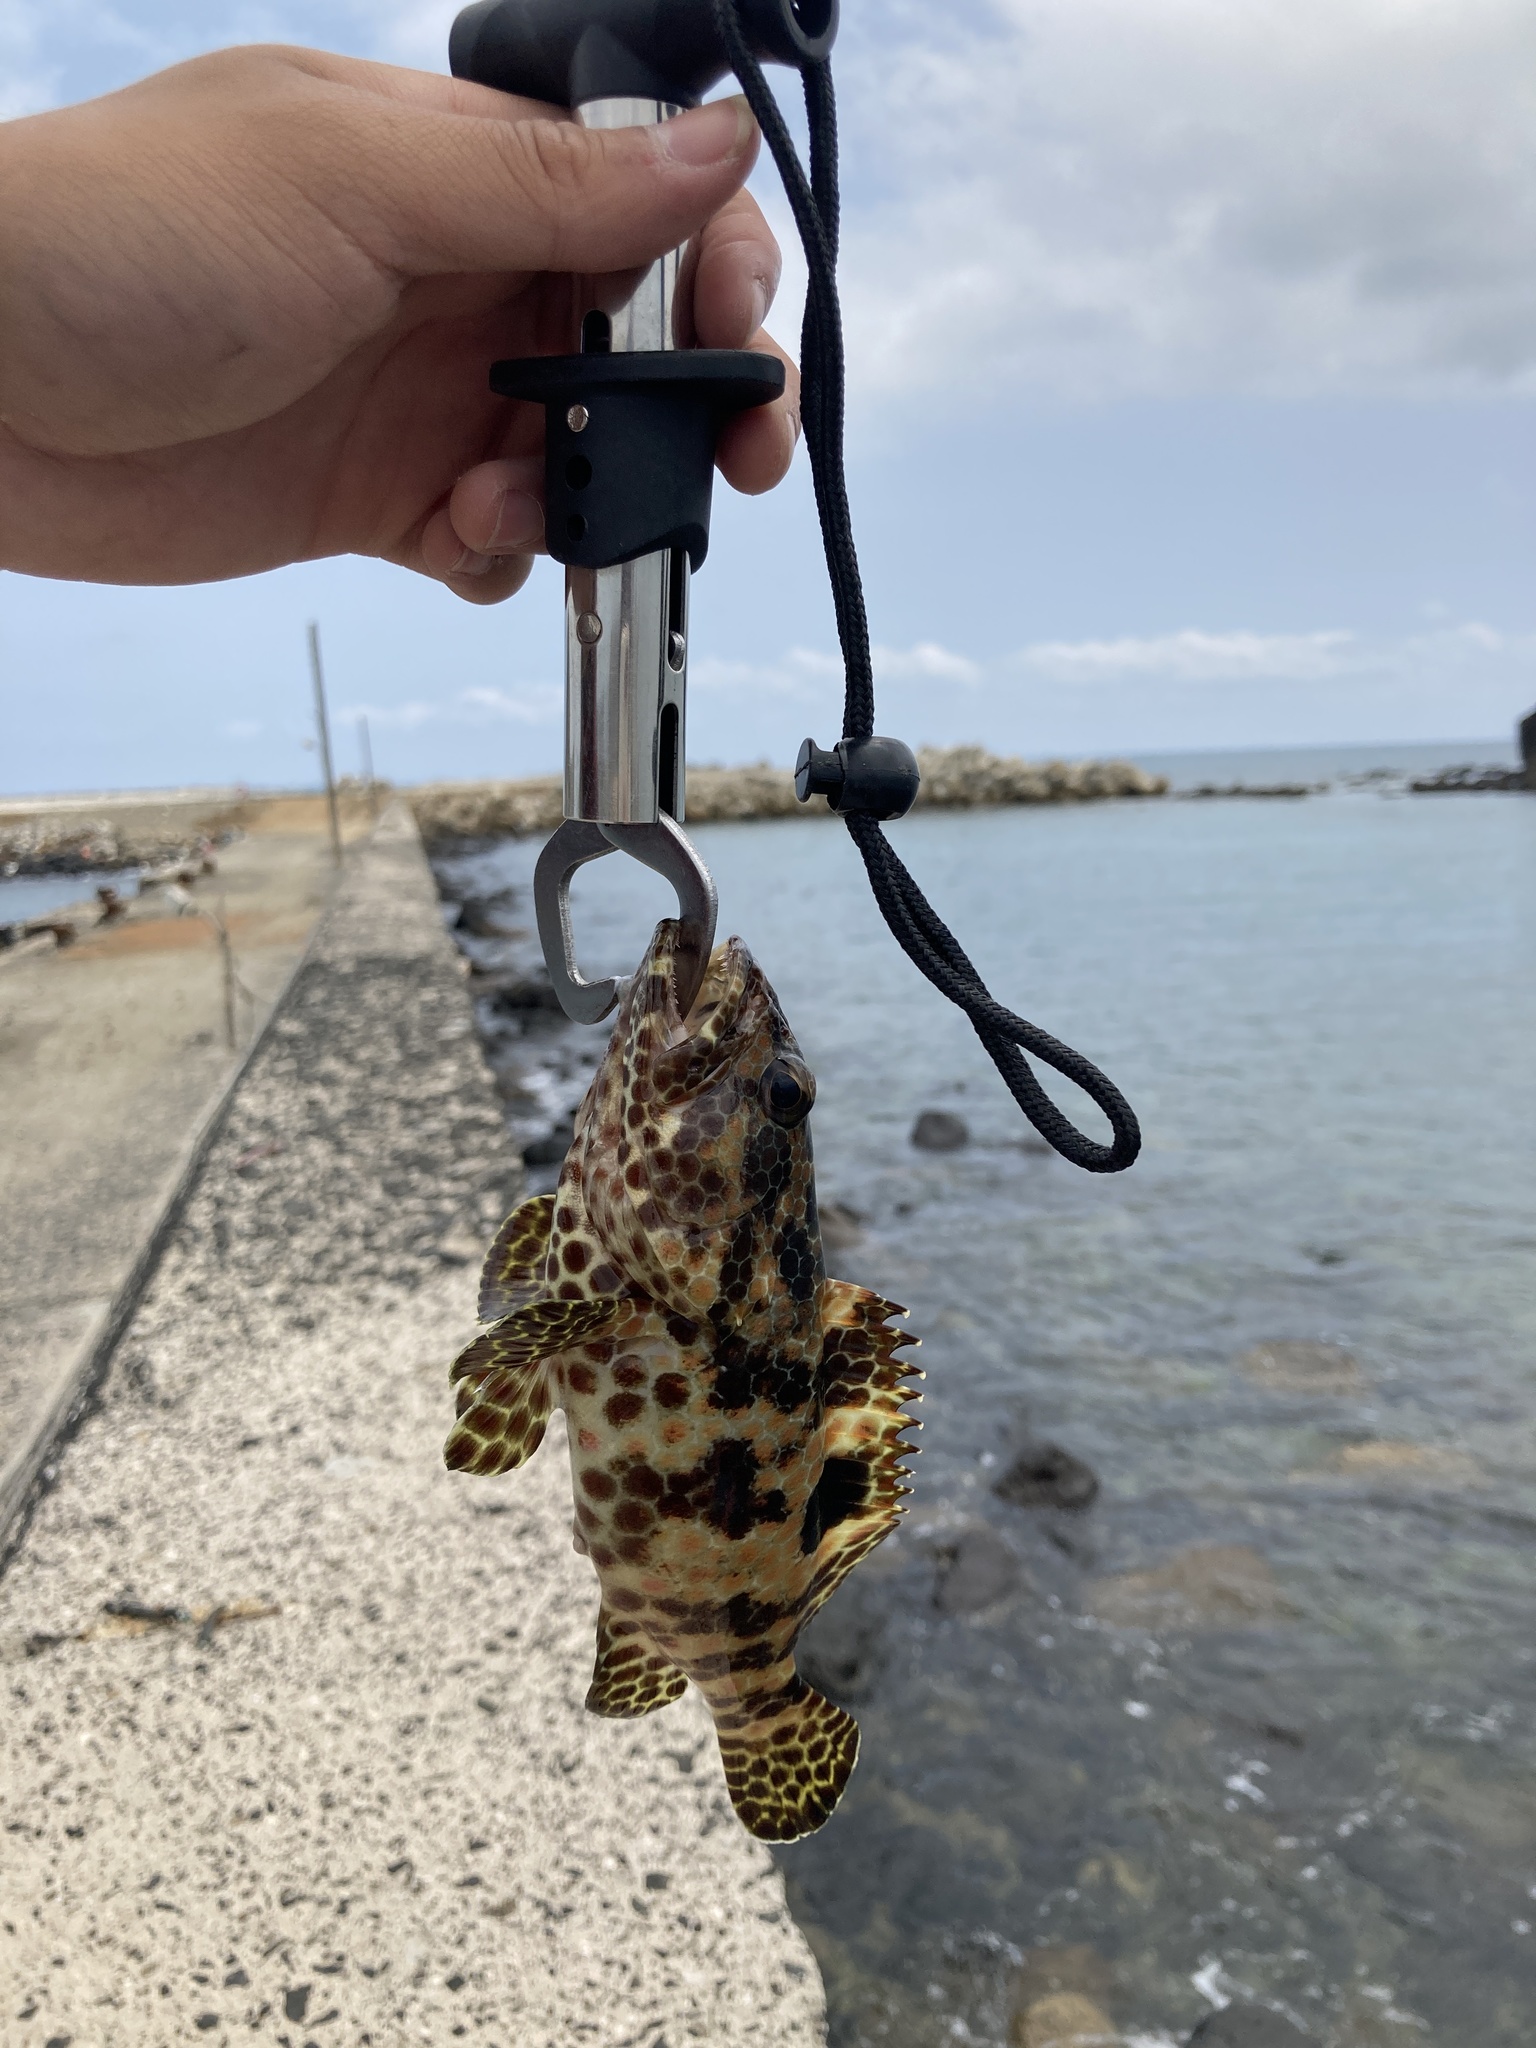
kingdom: Animalia
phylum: Chordata
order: Perciformes
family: Serranidae
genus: Epinephelus
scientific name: Epinephelus hexagonatus
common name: Hexagon grouper
